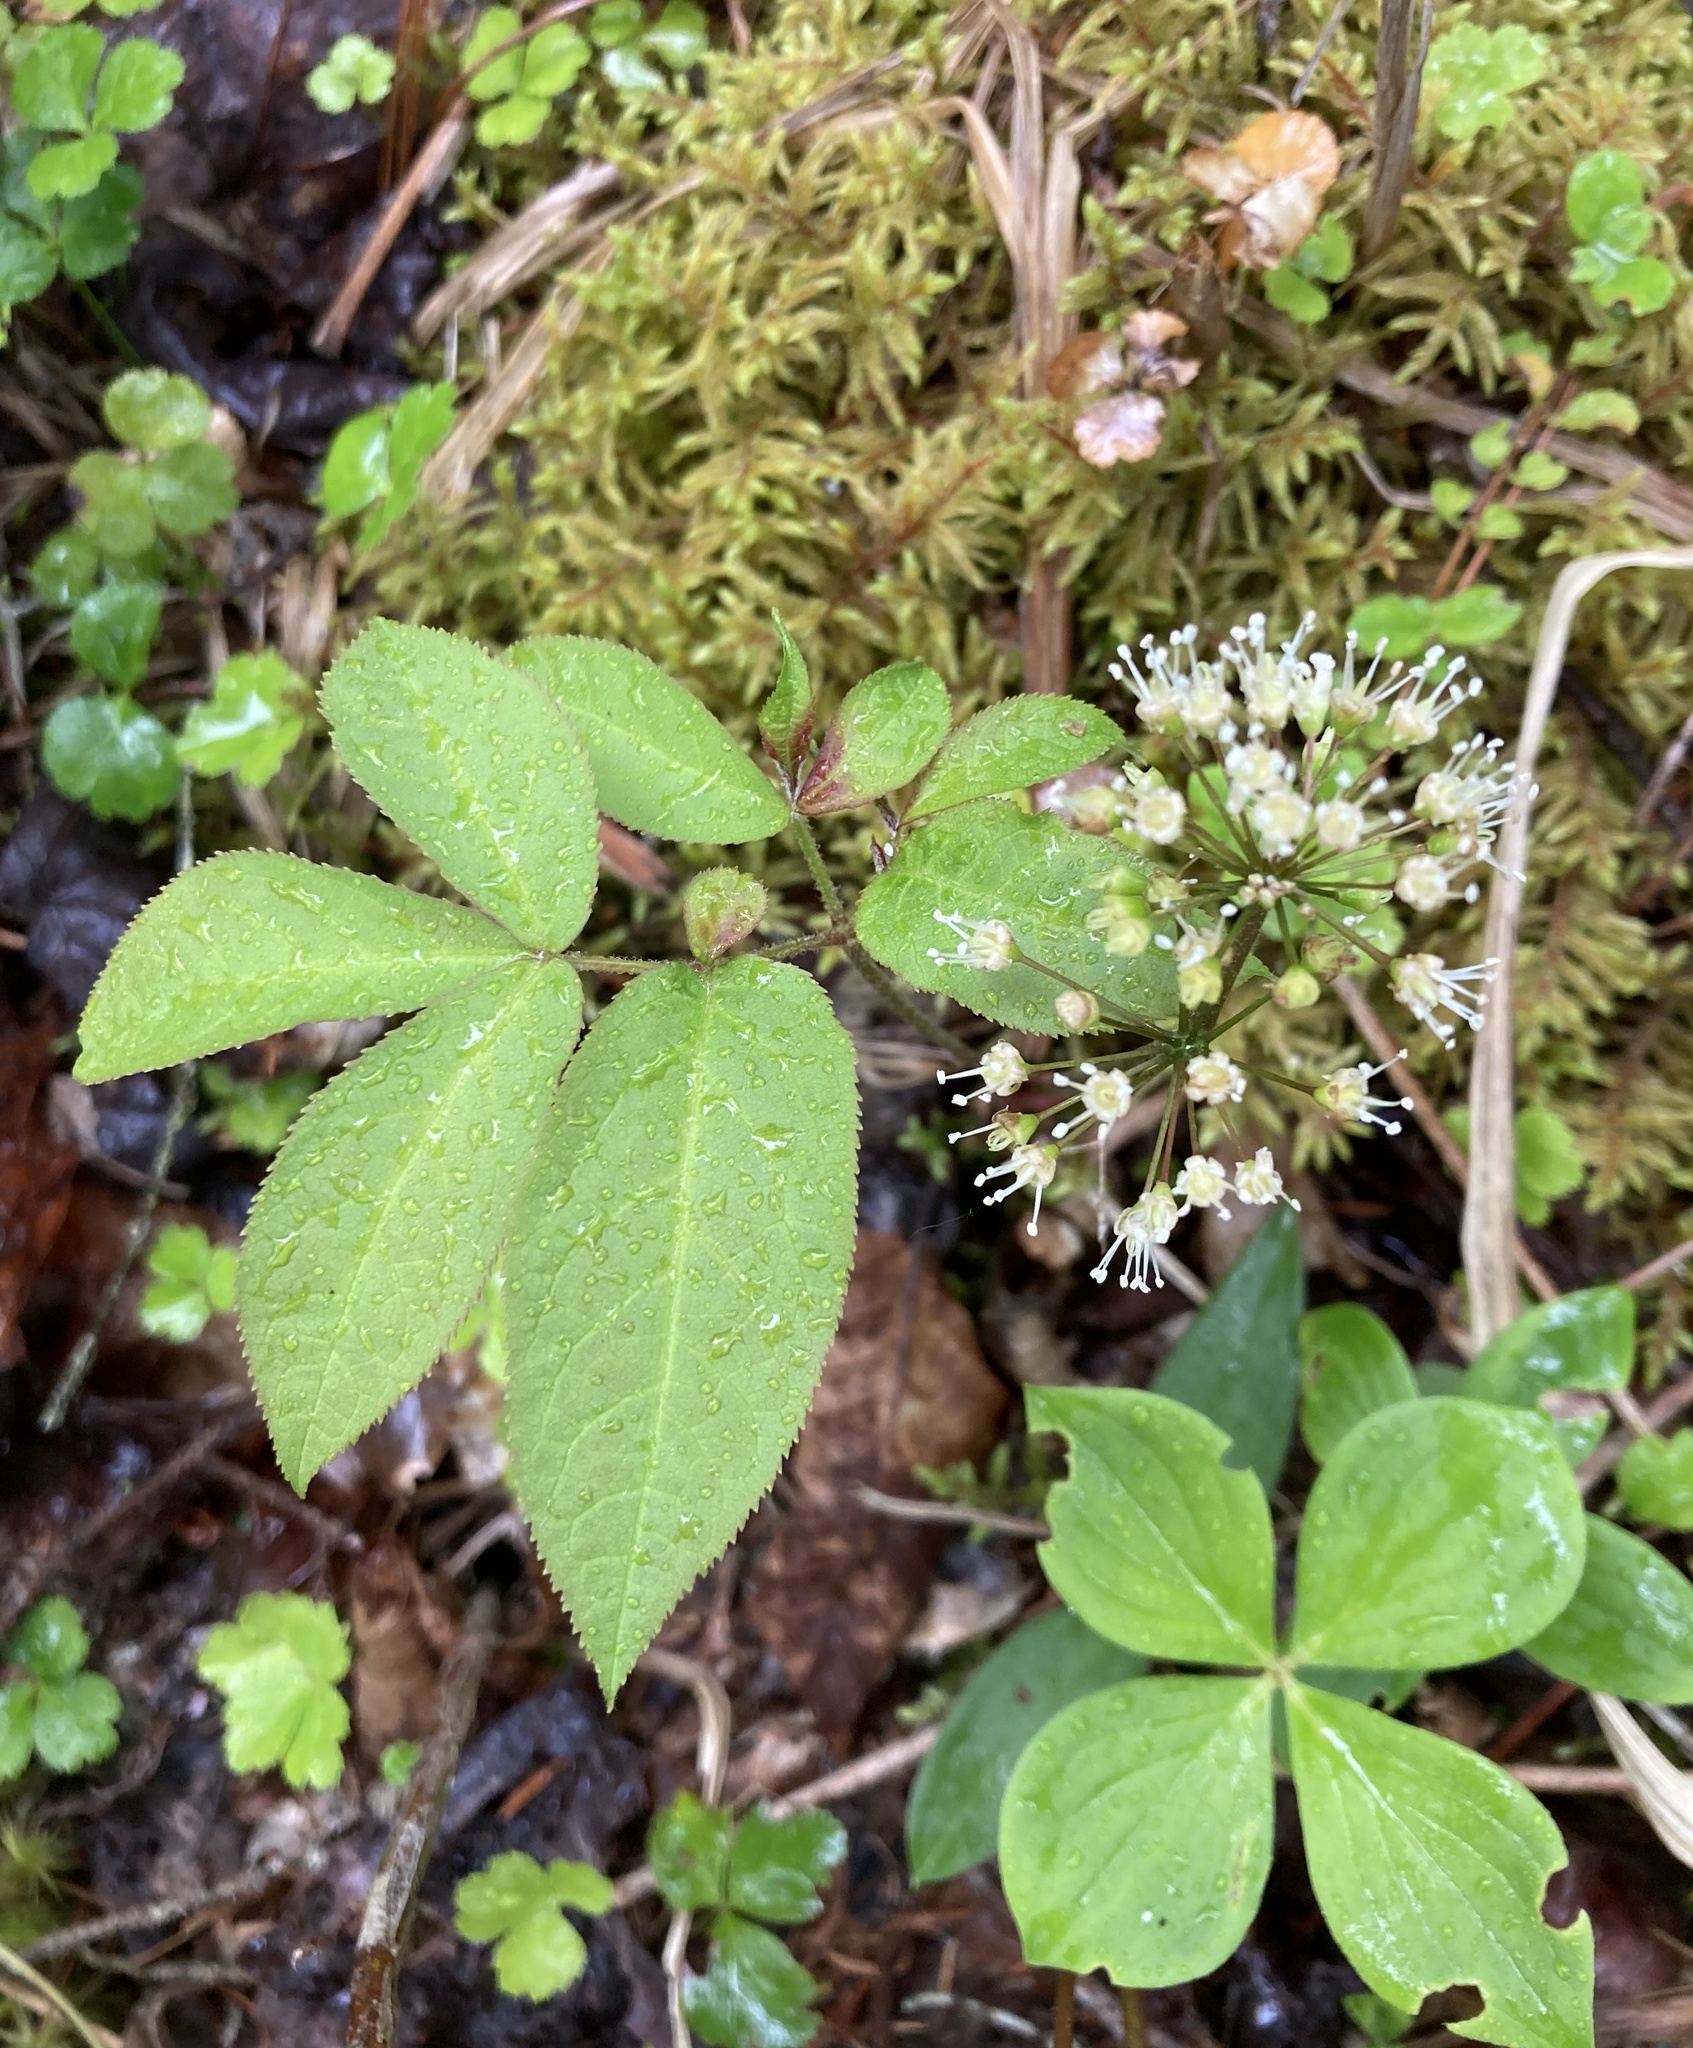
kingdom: Plantae
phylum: Tracheophyta
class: Magnoliopsida
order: Apiales
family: Araliaceae
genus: Aralia
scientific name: Aralia nudicaulis
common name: Wild sarsaparilla
